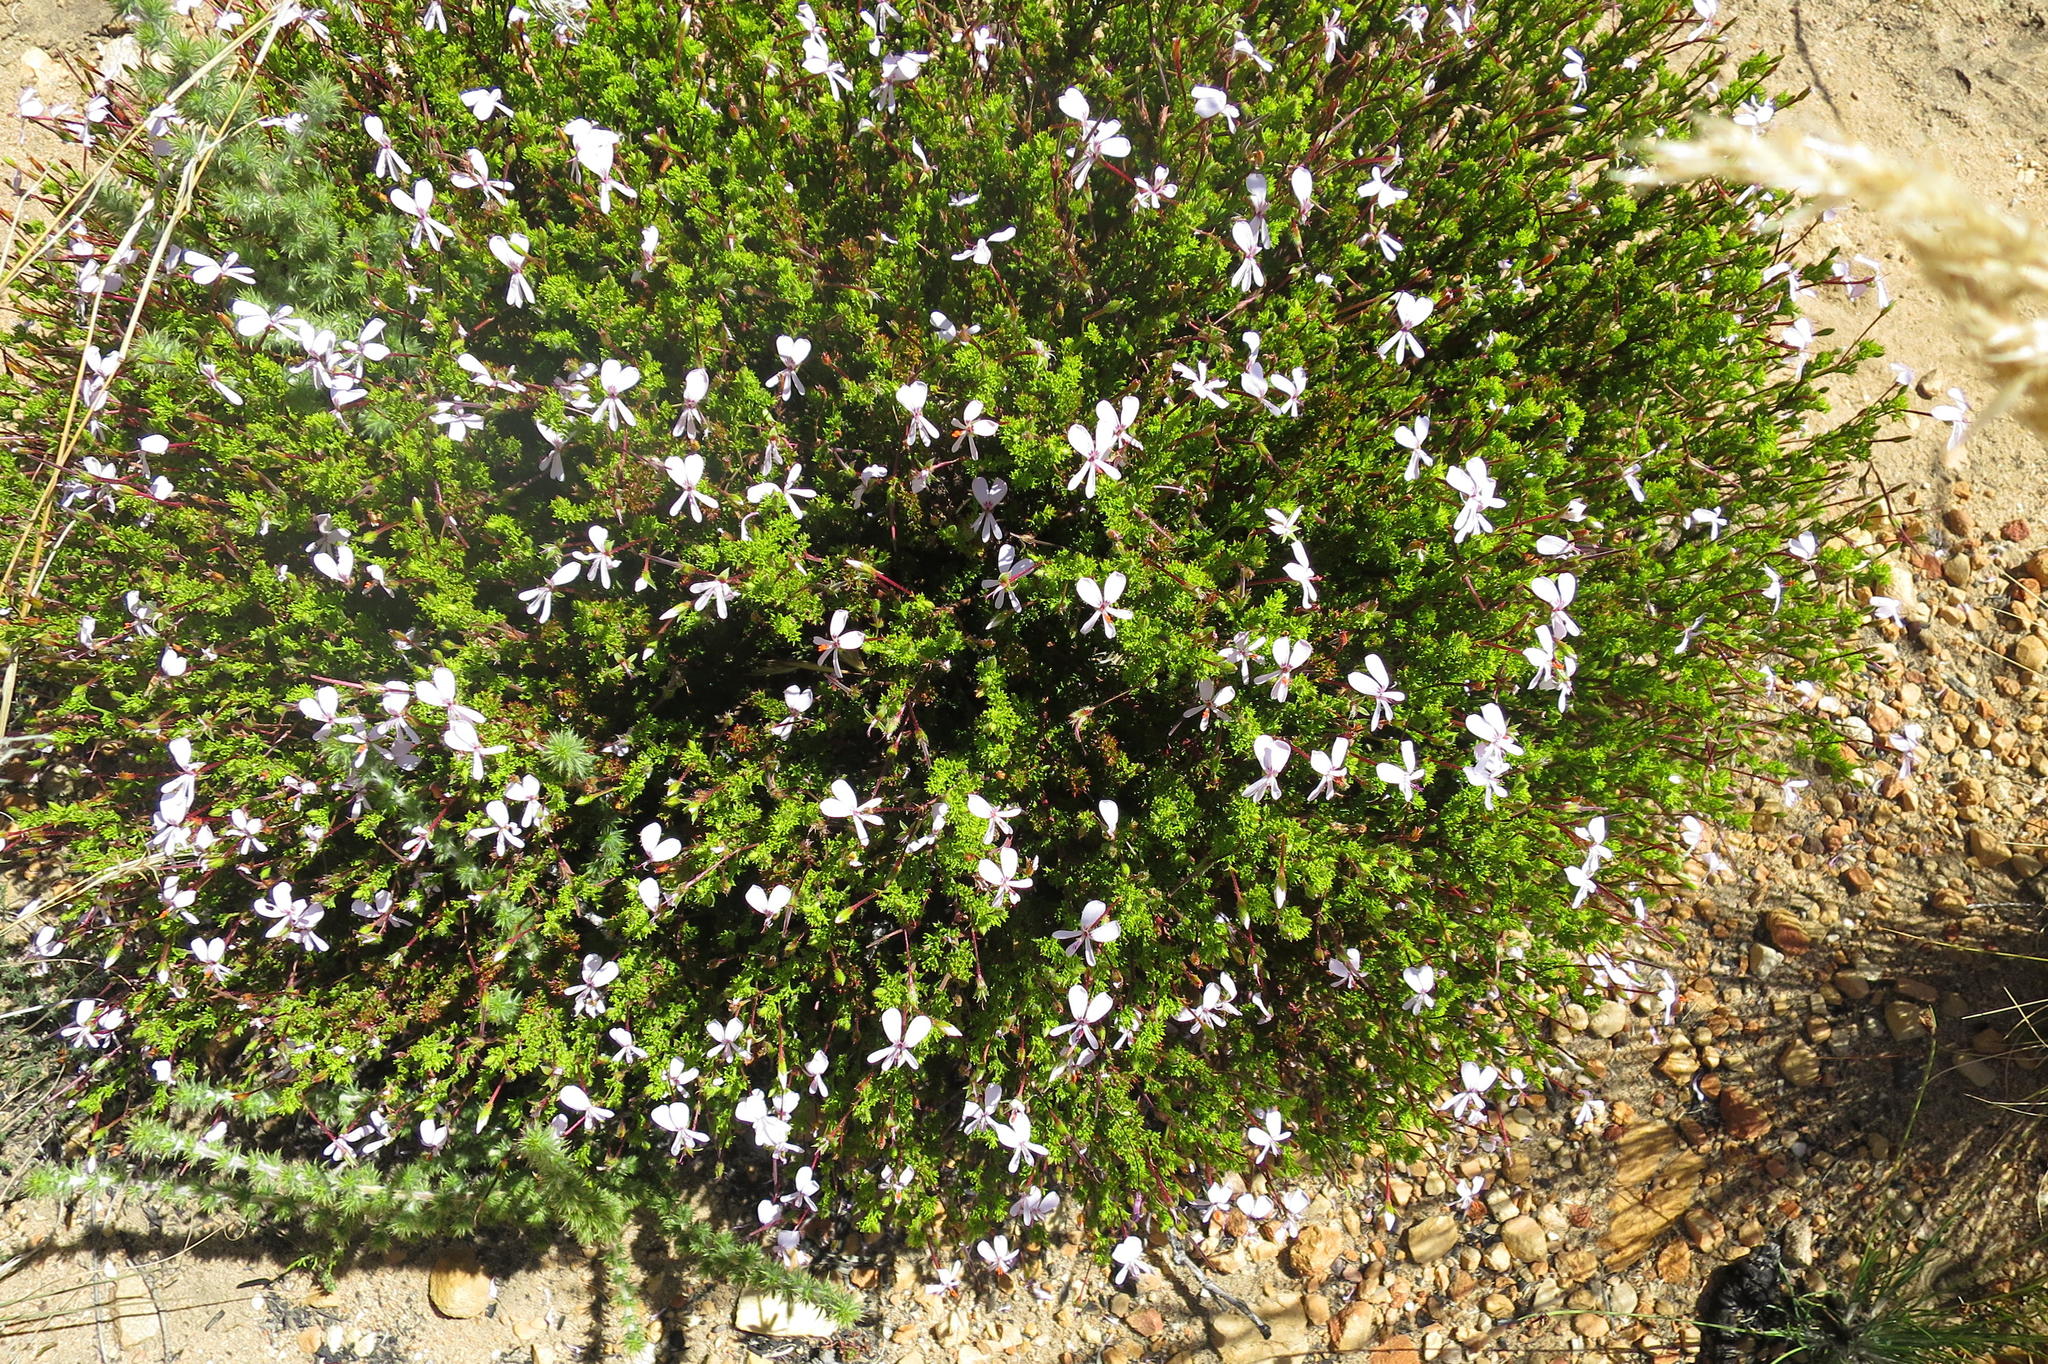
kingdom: Plantae
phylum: Tracheophyta
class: Magnoliopsida
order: Geraniales
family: Geraniaceae
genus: Pelargonium
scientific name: Pelargonium fruticosum
